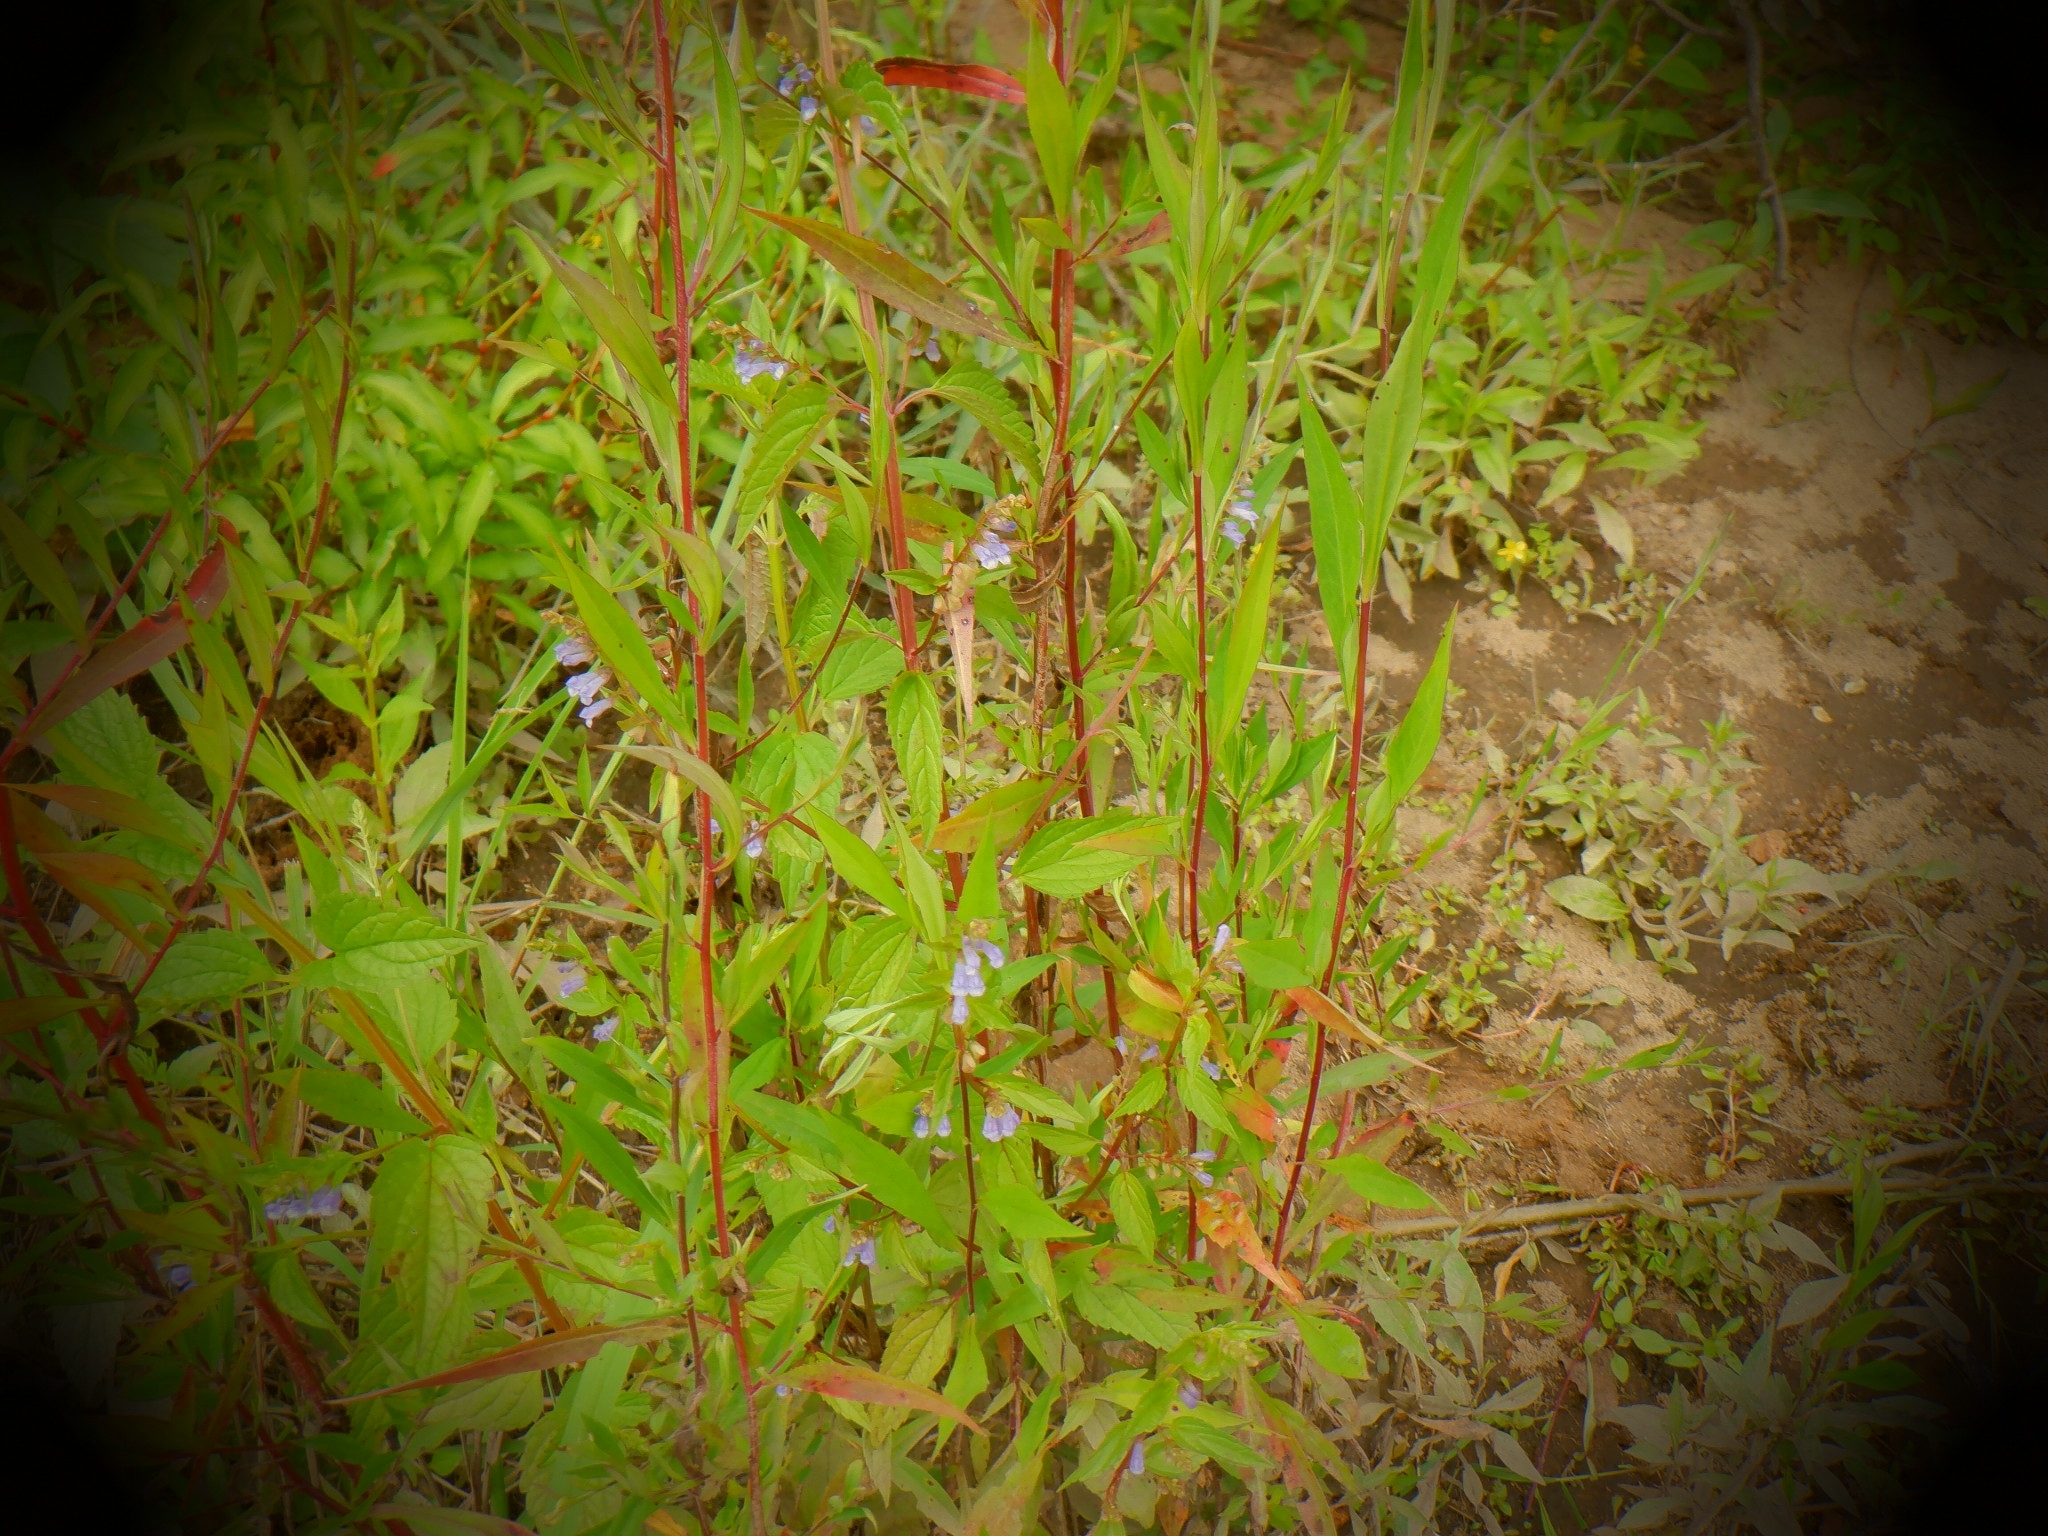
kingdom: Plantae
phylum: Tracheophyta
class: Magnoliopsida
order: Lamiales
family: Lamiaceae
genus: Scutellaria
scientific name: Scutellaria lateriflora
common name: Blue skullcap
